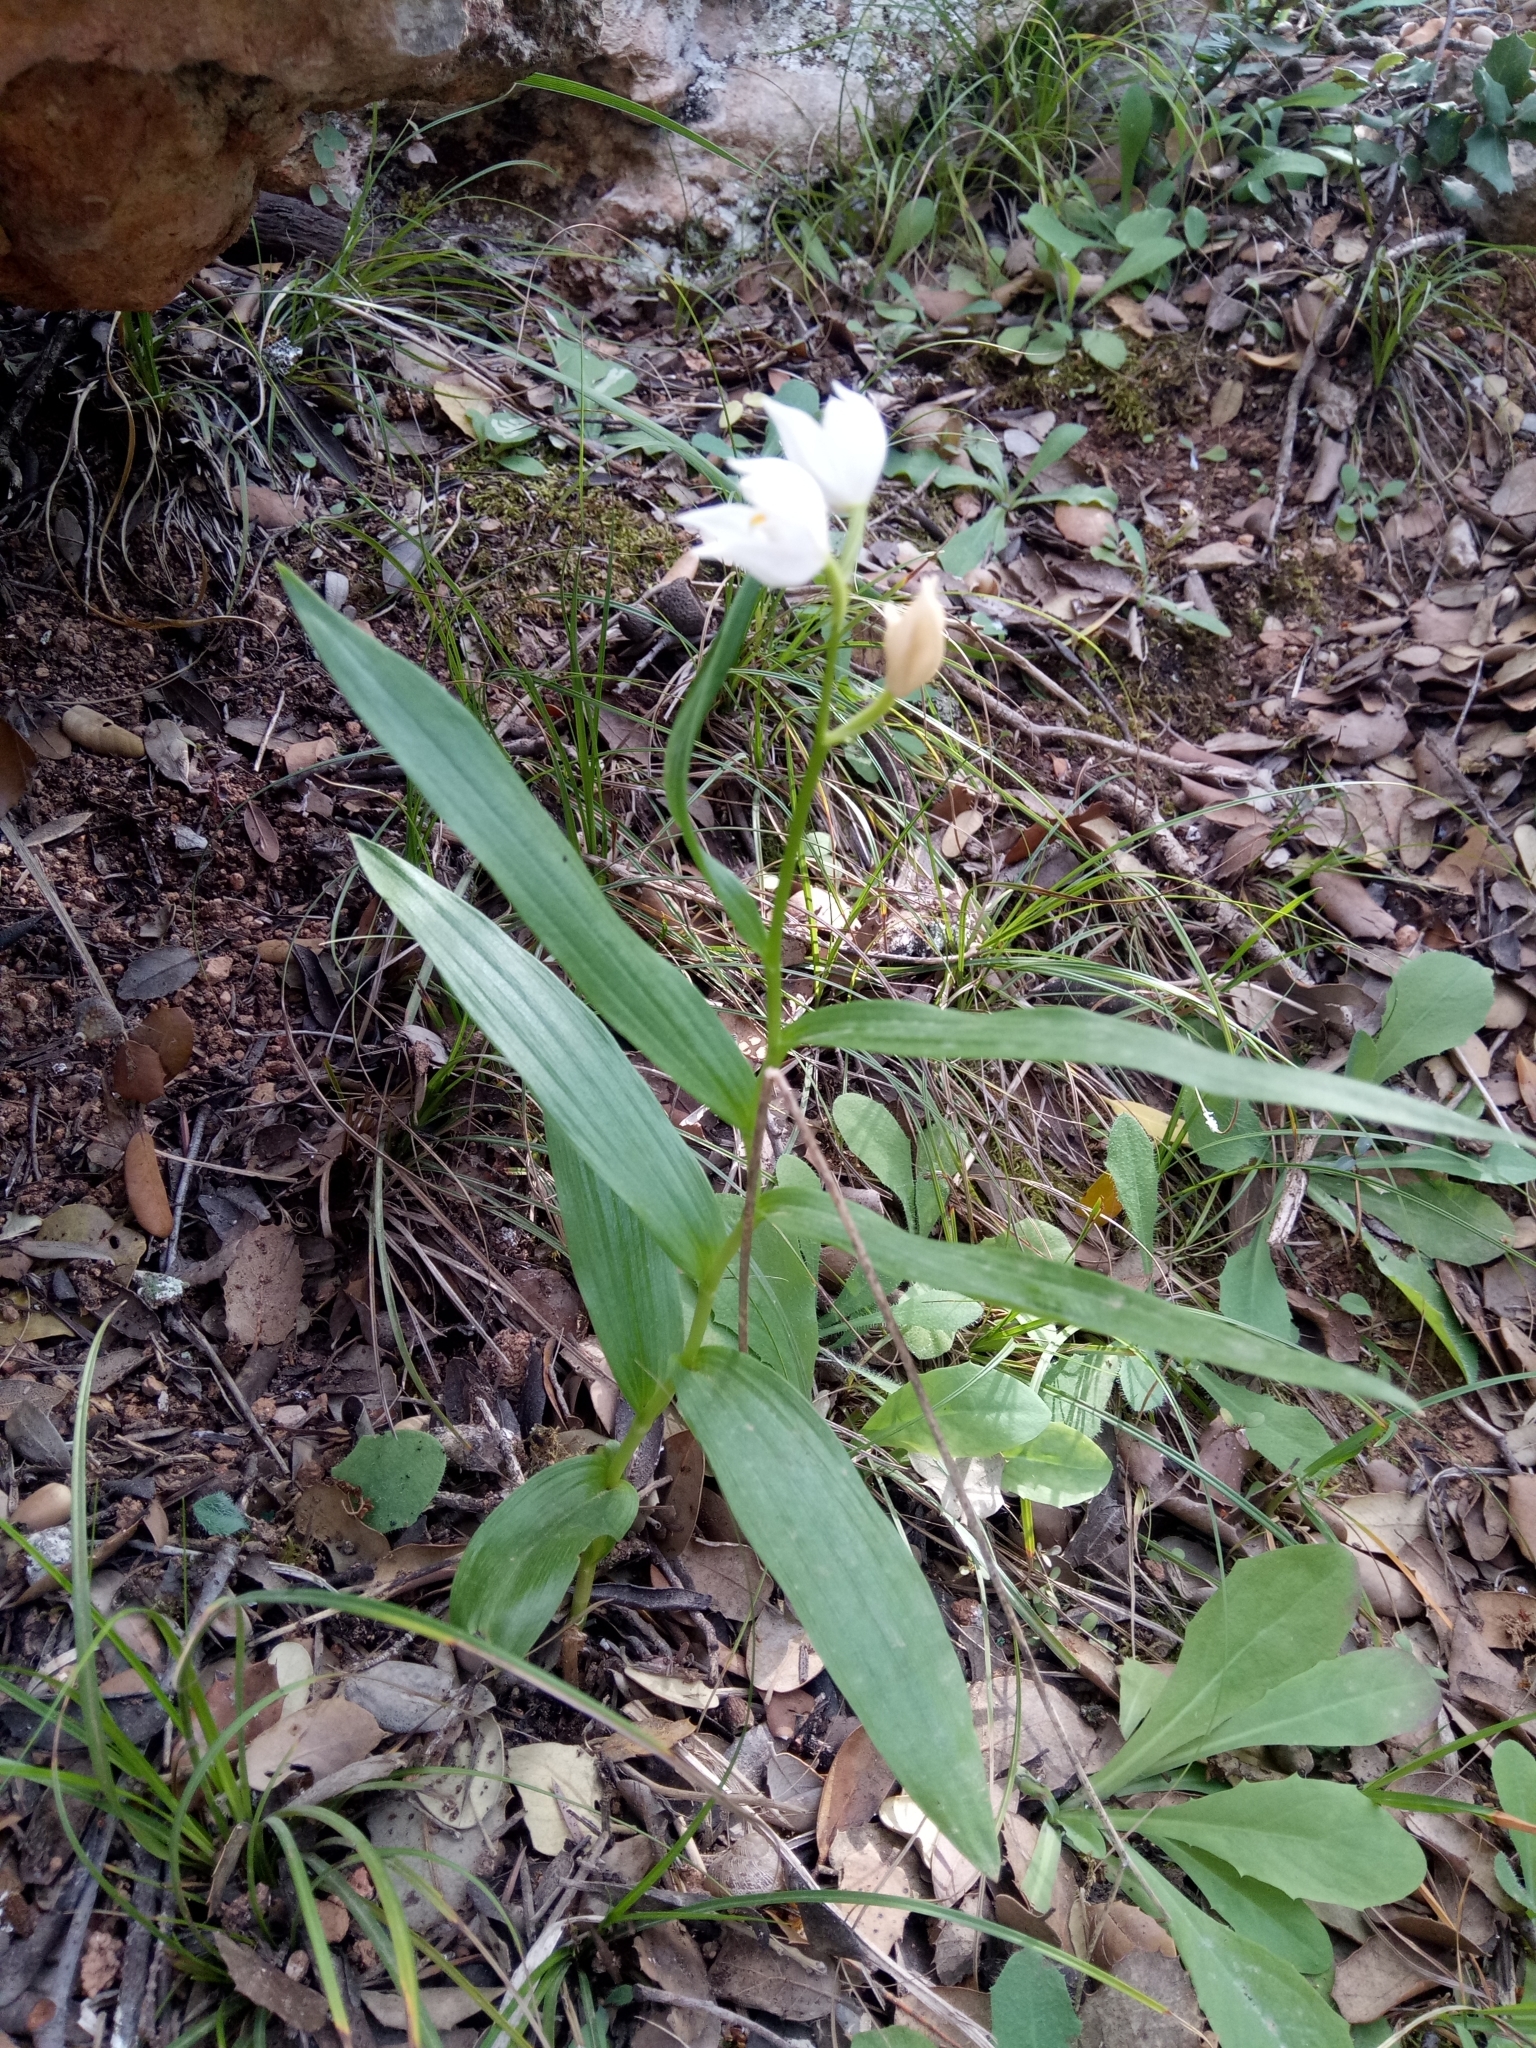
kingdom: Plantae
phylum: Tracheophyta
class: Liliopsida
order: Asparagales
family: Orchidaceae
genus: Cephalanthera
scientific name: Cephalanthera longifolia
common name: Narrow-leaved helleborine
